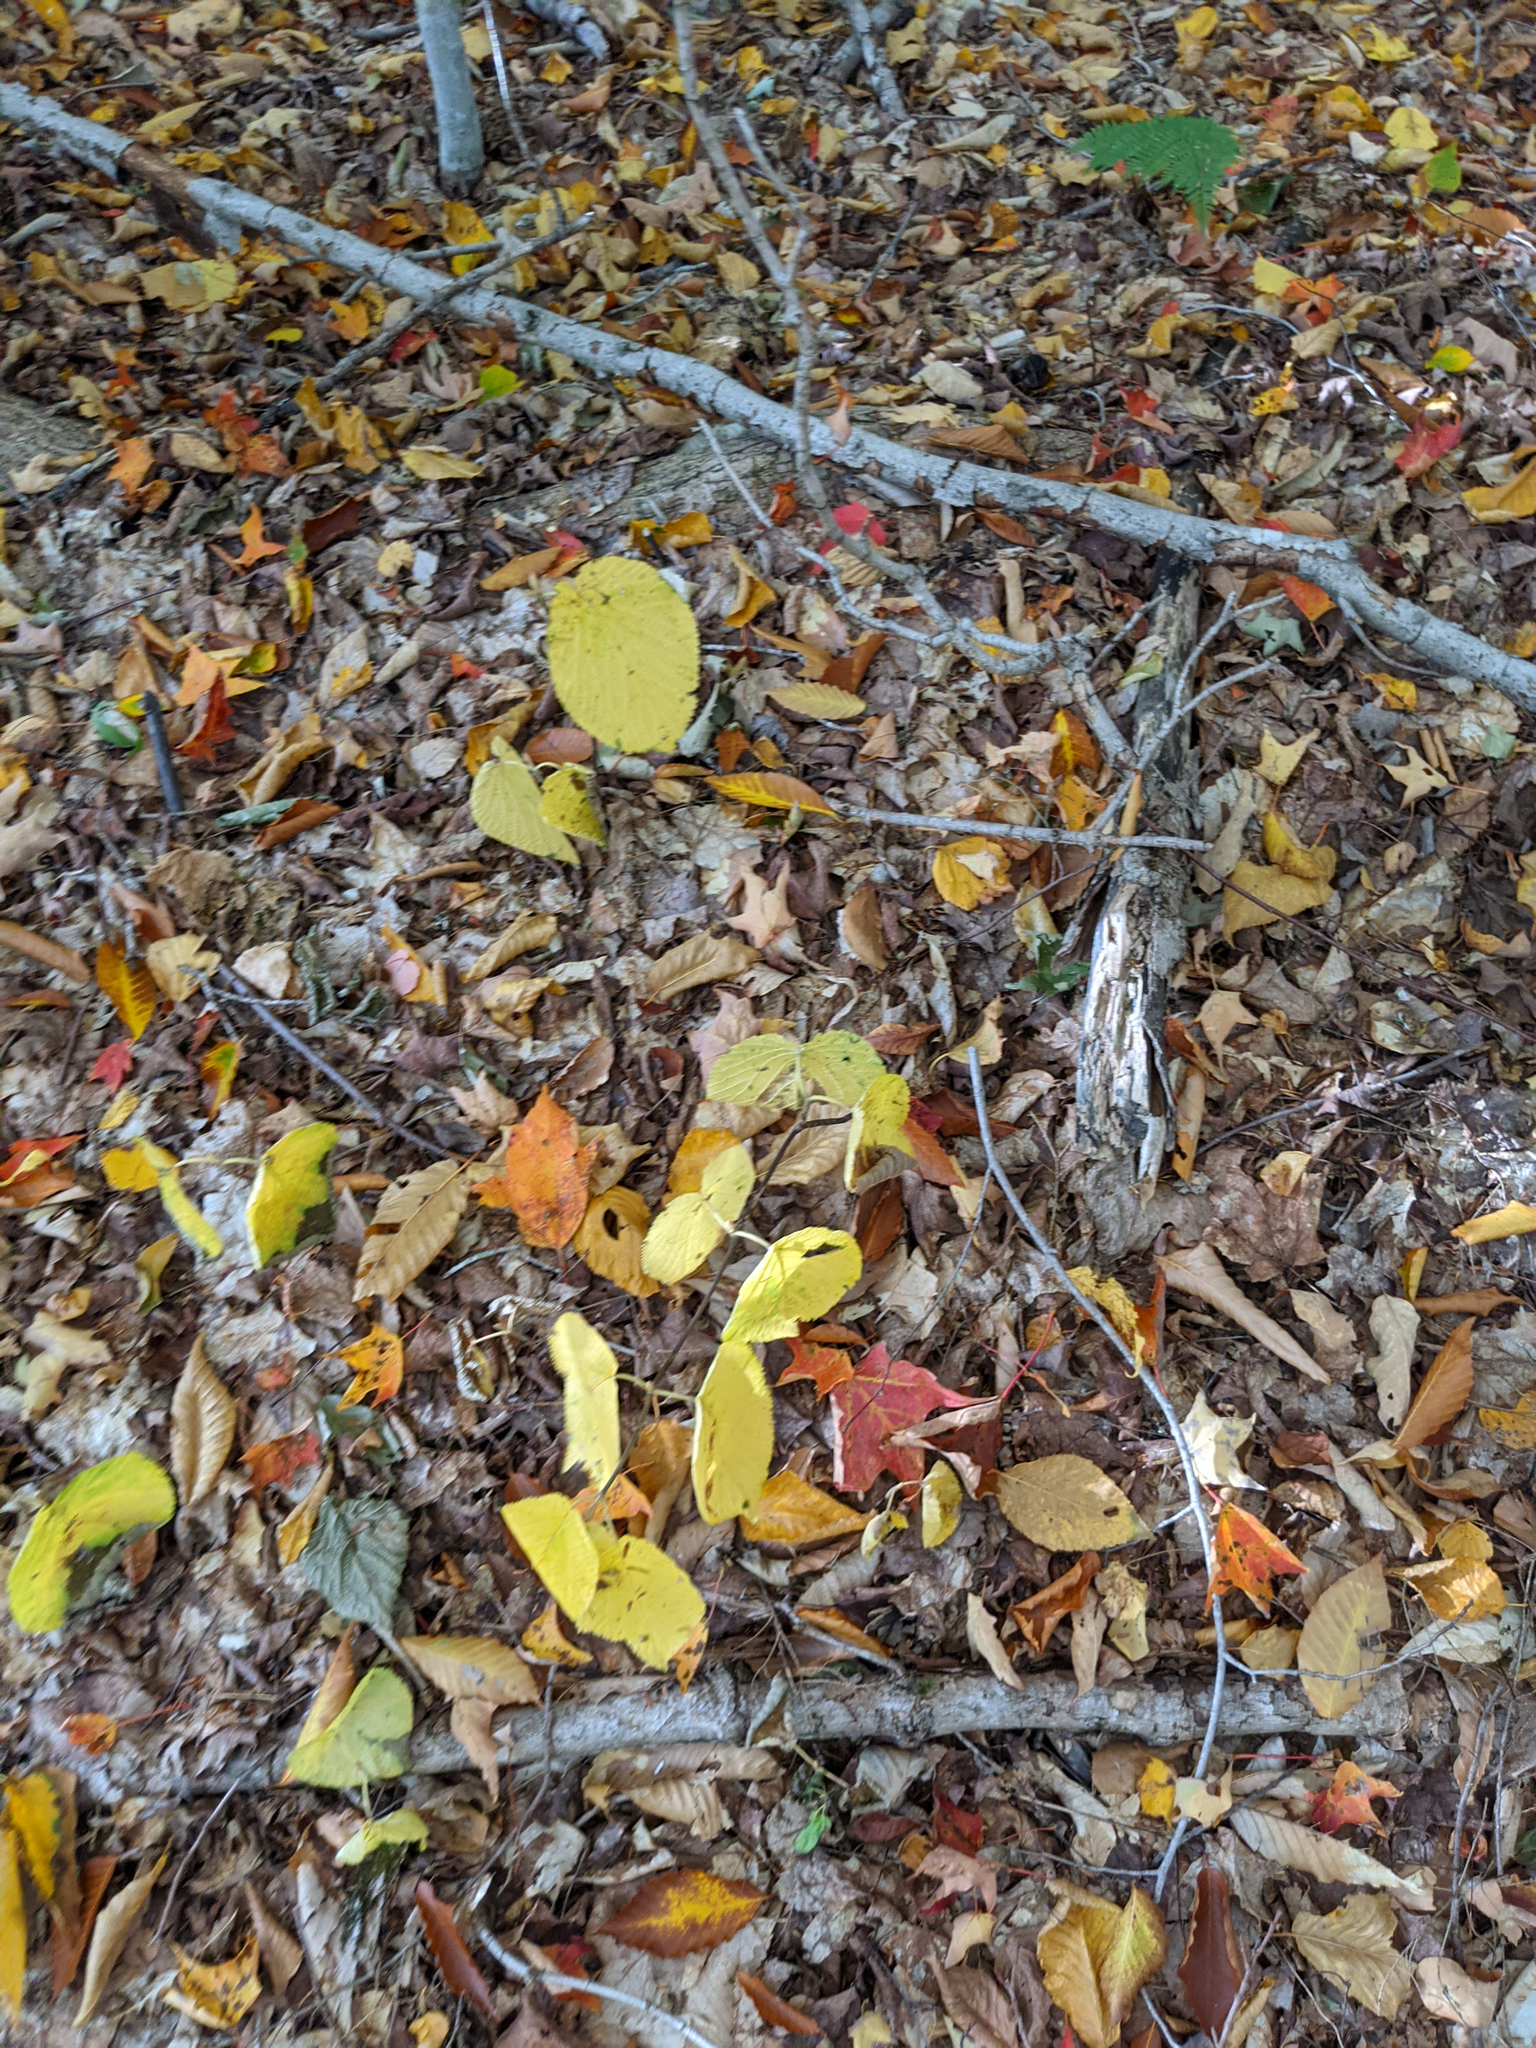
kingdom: Plantae
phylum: Tracheophyta
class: Magnoliopsida
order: Dipsacales
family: Viburnaceae
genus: Viburnum
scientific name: Viburnum lantanoides
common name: Hobblebush
